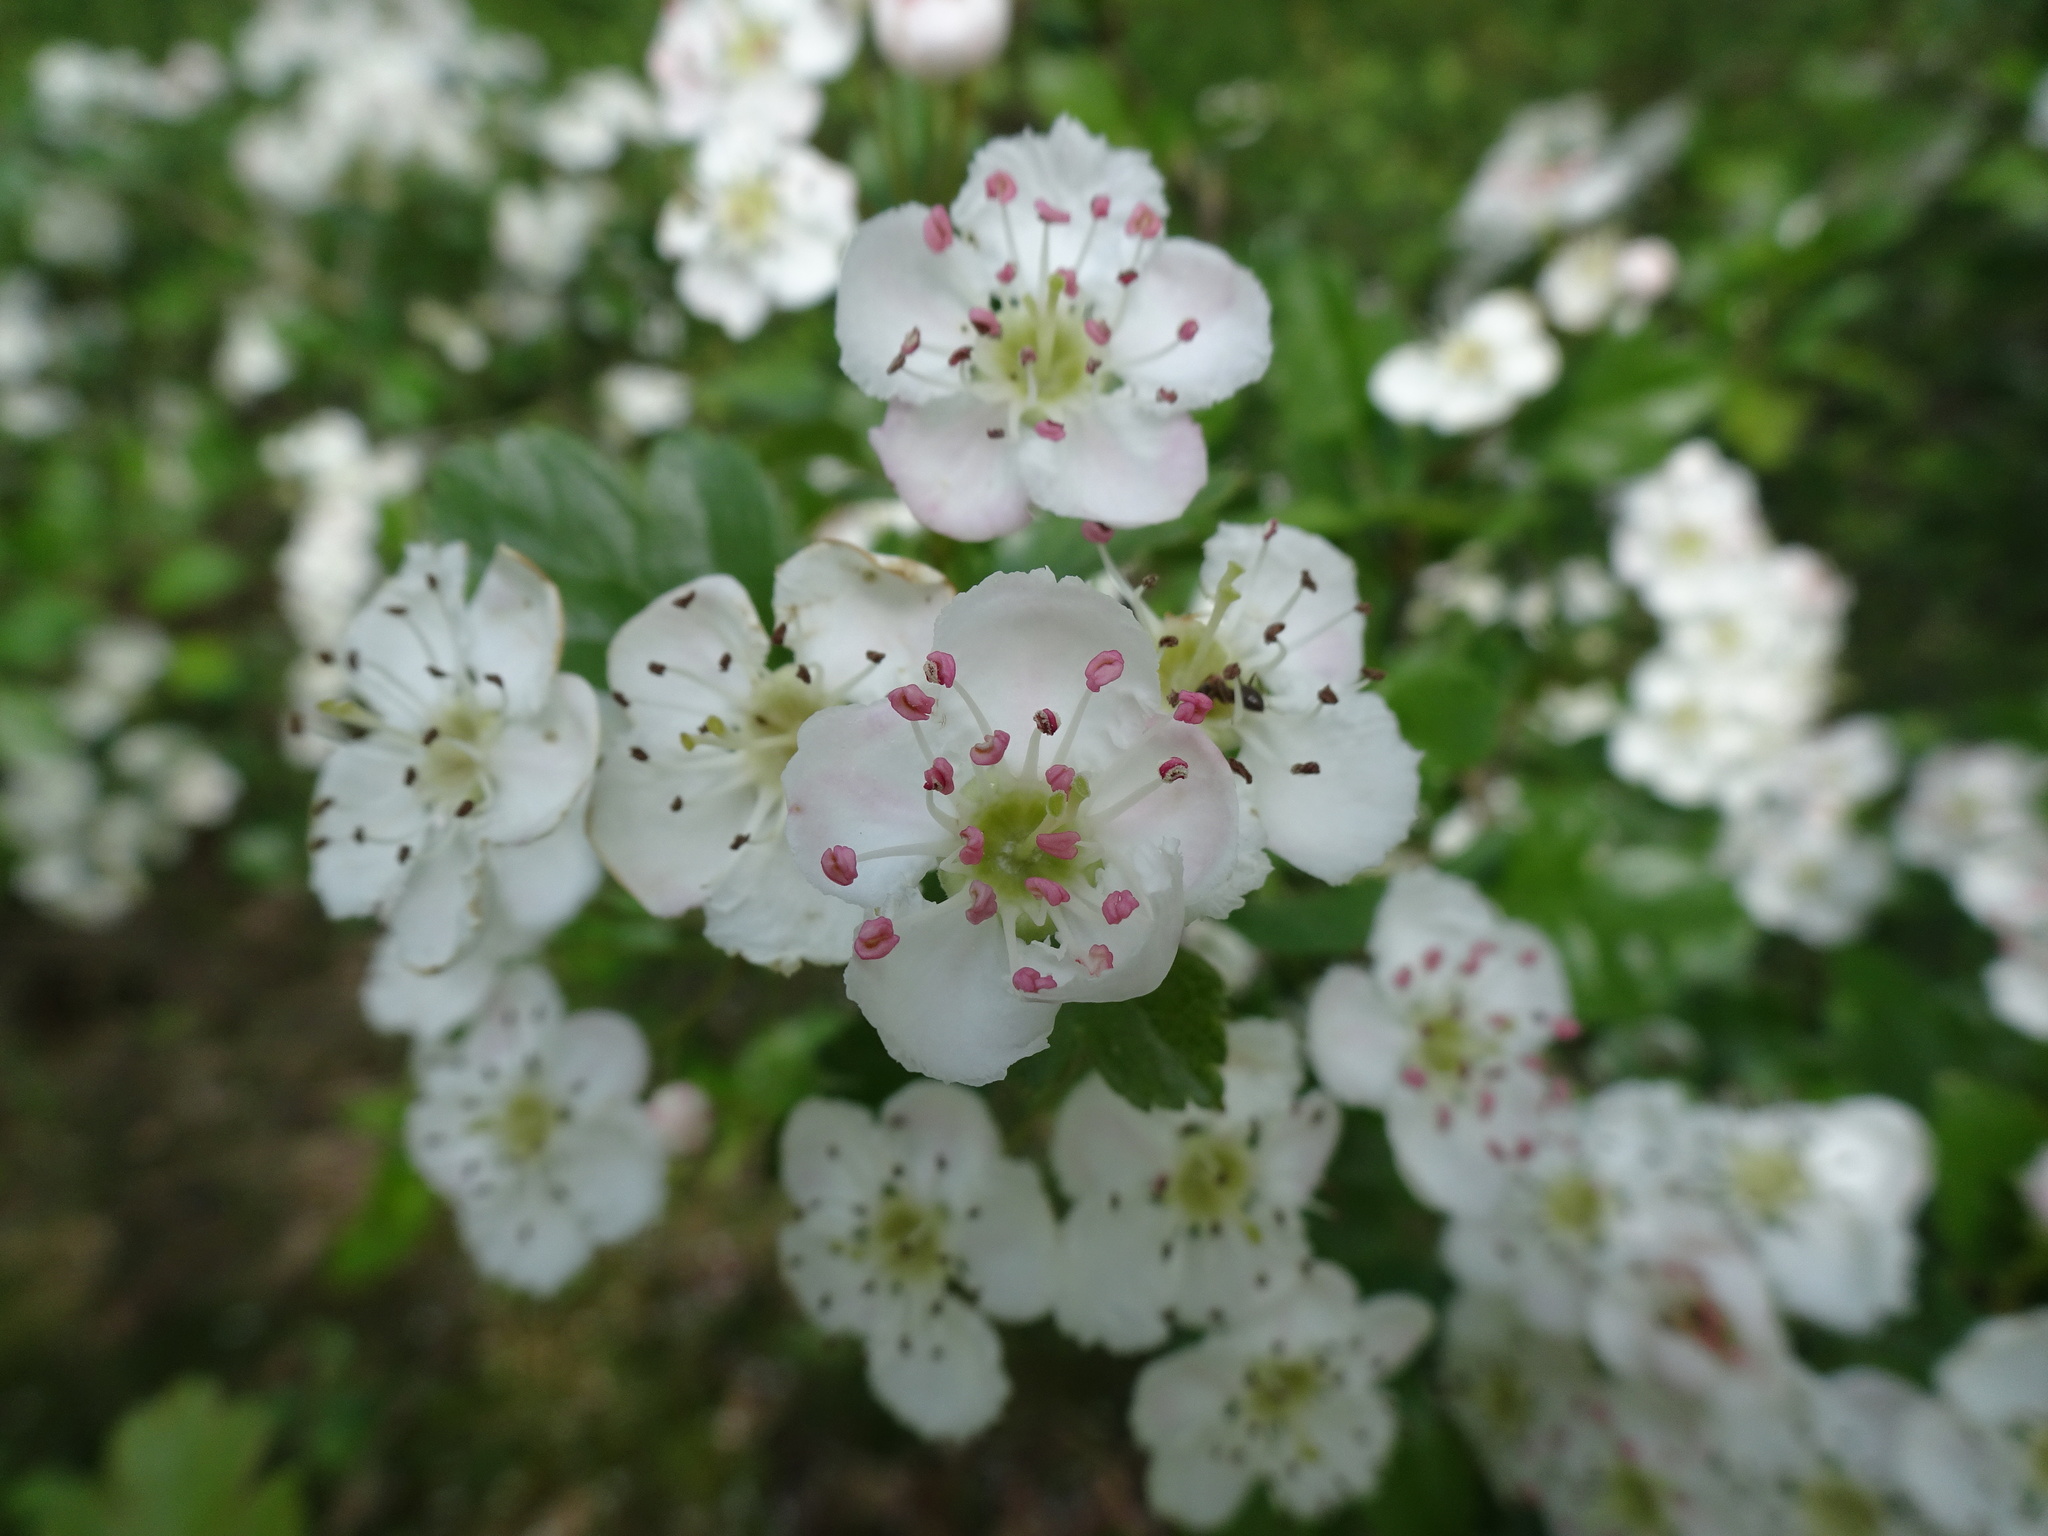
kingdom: Plantae
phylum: Tracheophyta
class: Magnoliopsida
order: Rosales
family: Rosaceae
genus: Crataegus
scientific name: Crataegus laevigata
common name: Midland hawthorn
